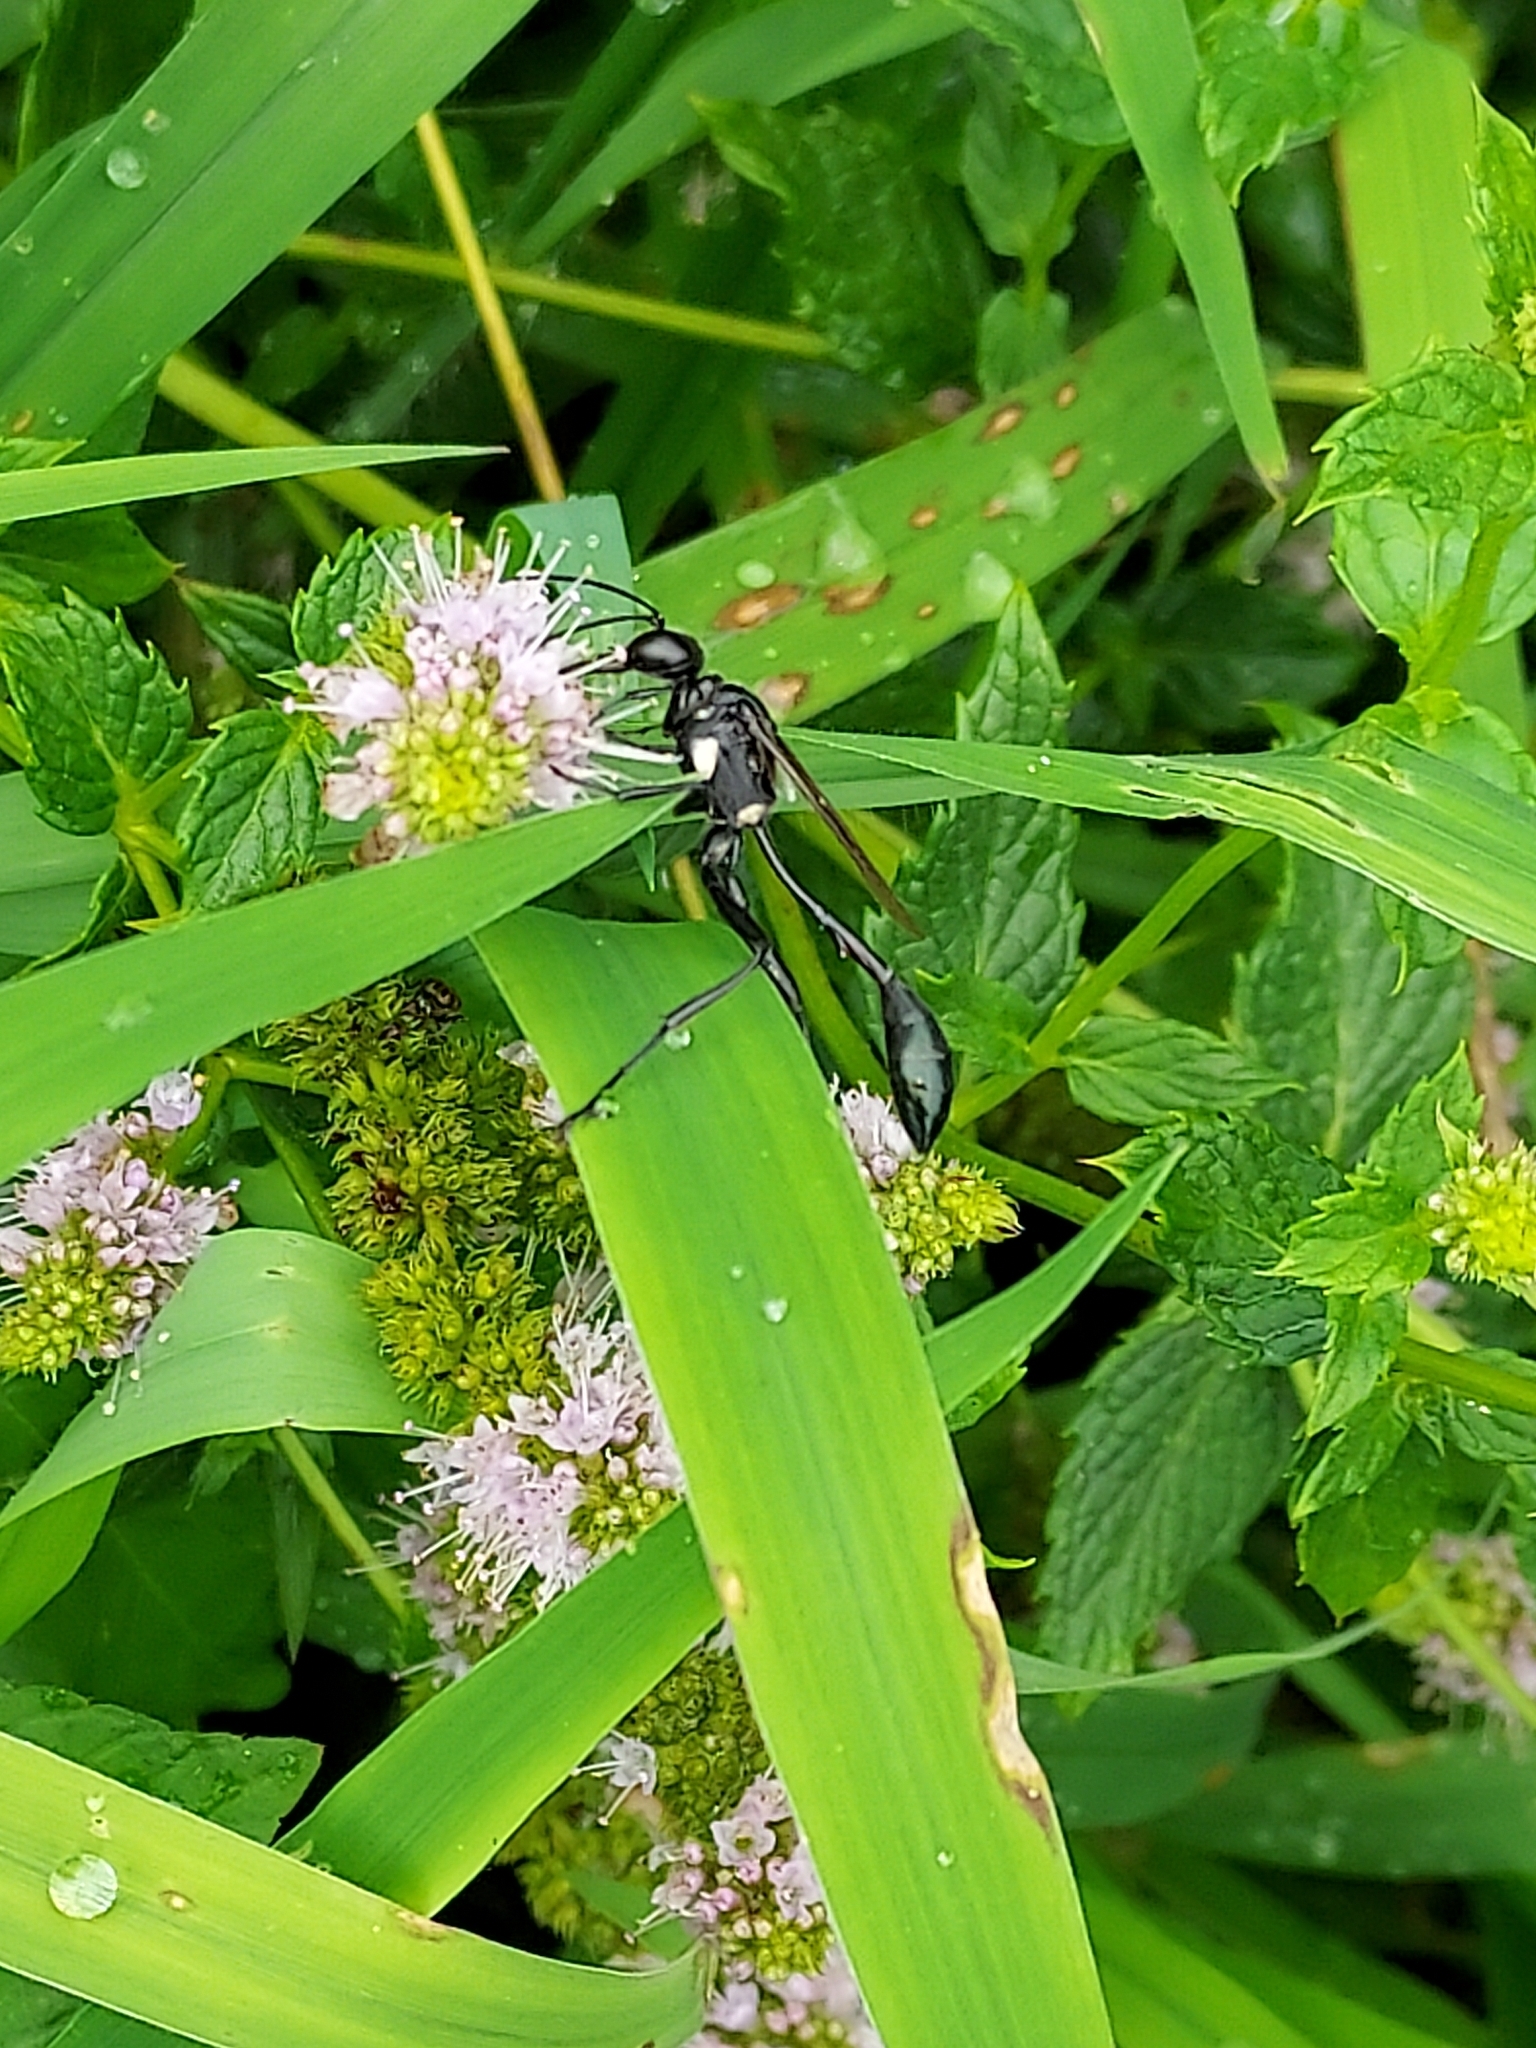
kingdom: Animalia
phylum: Arthropoda
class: Insecta
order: Hymenoptera
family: Sphecidae
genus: Eremnophila
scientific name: Eremnophila aureonotata
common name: Gold-marked thread-waisted wasp
